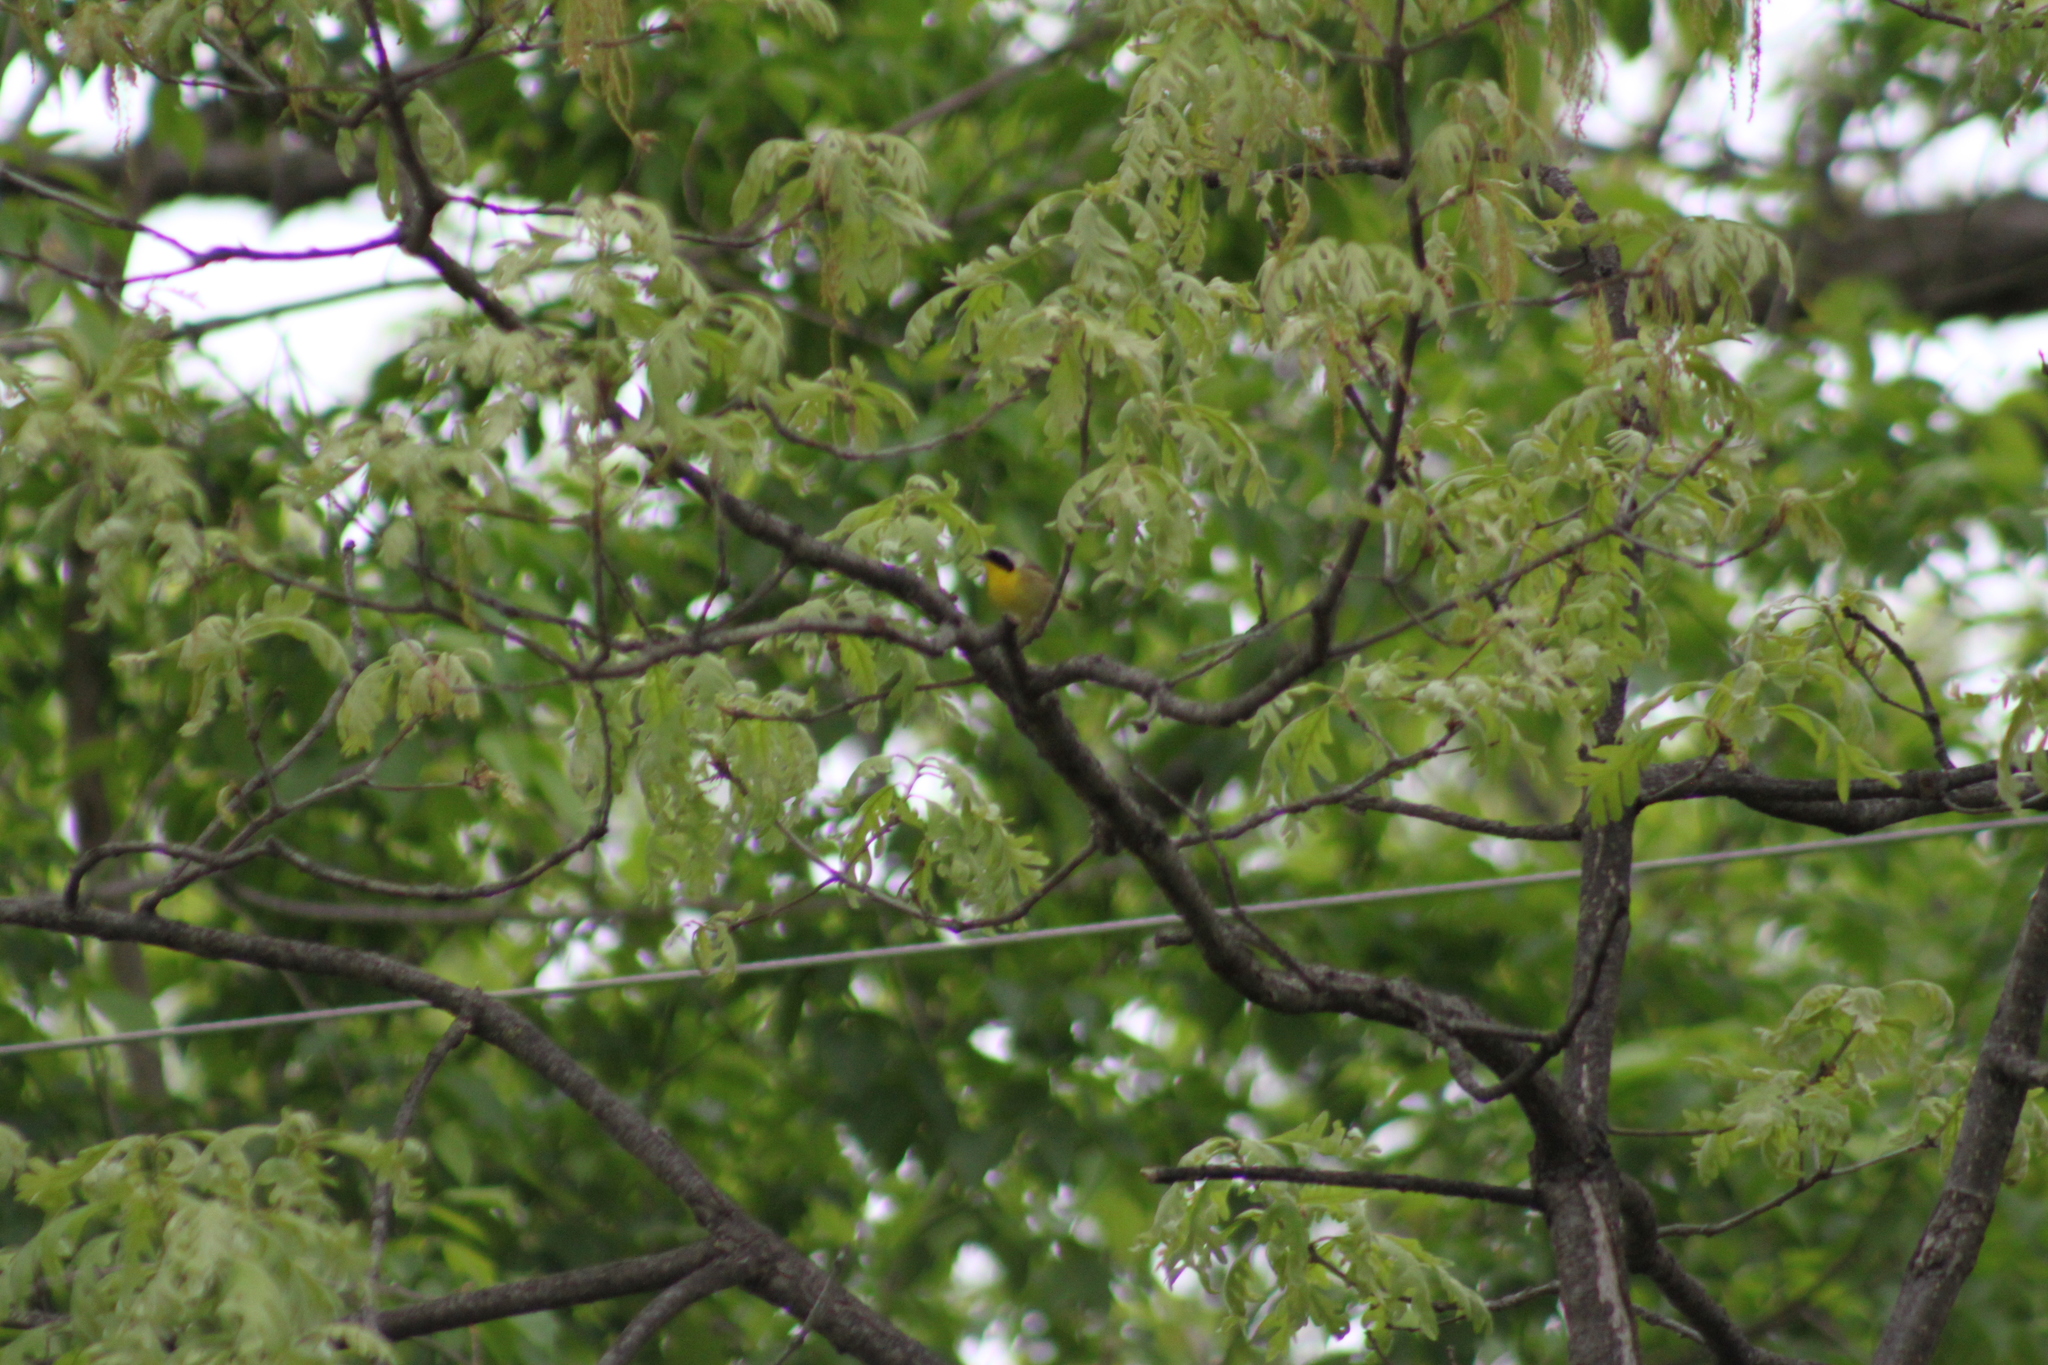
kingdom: Animalia
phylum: Chordata
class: Aves
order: Passeriformes
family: Parulidae
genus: Geothlypis
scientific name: Geothlypis trichas
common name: Common yellowthroat
